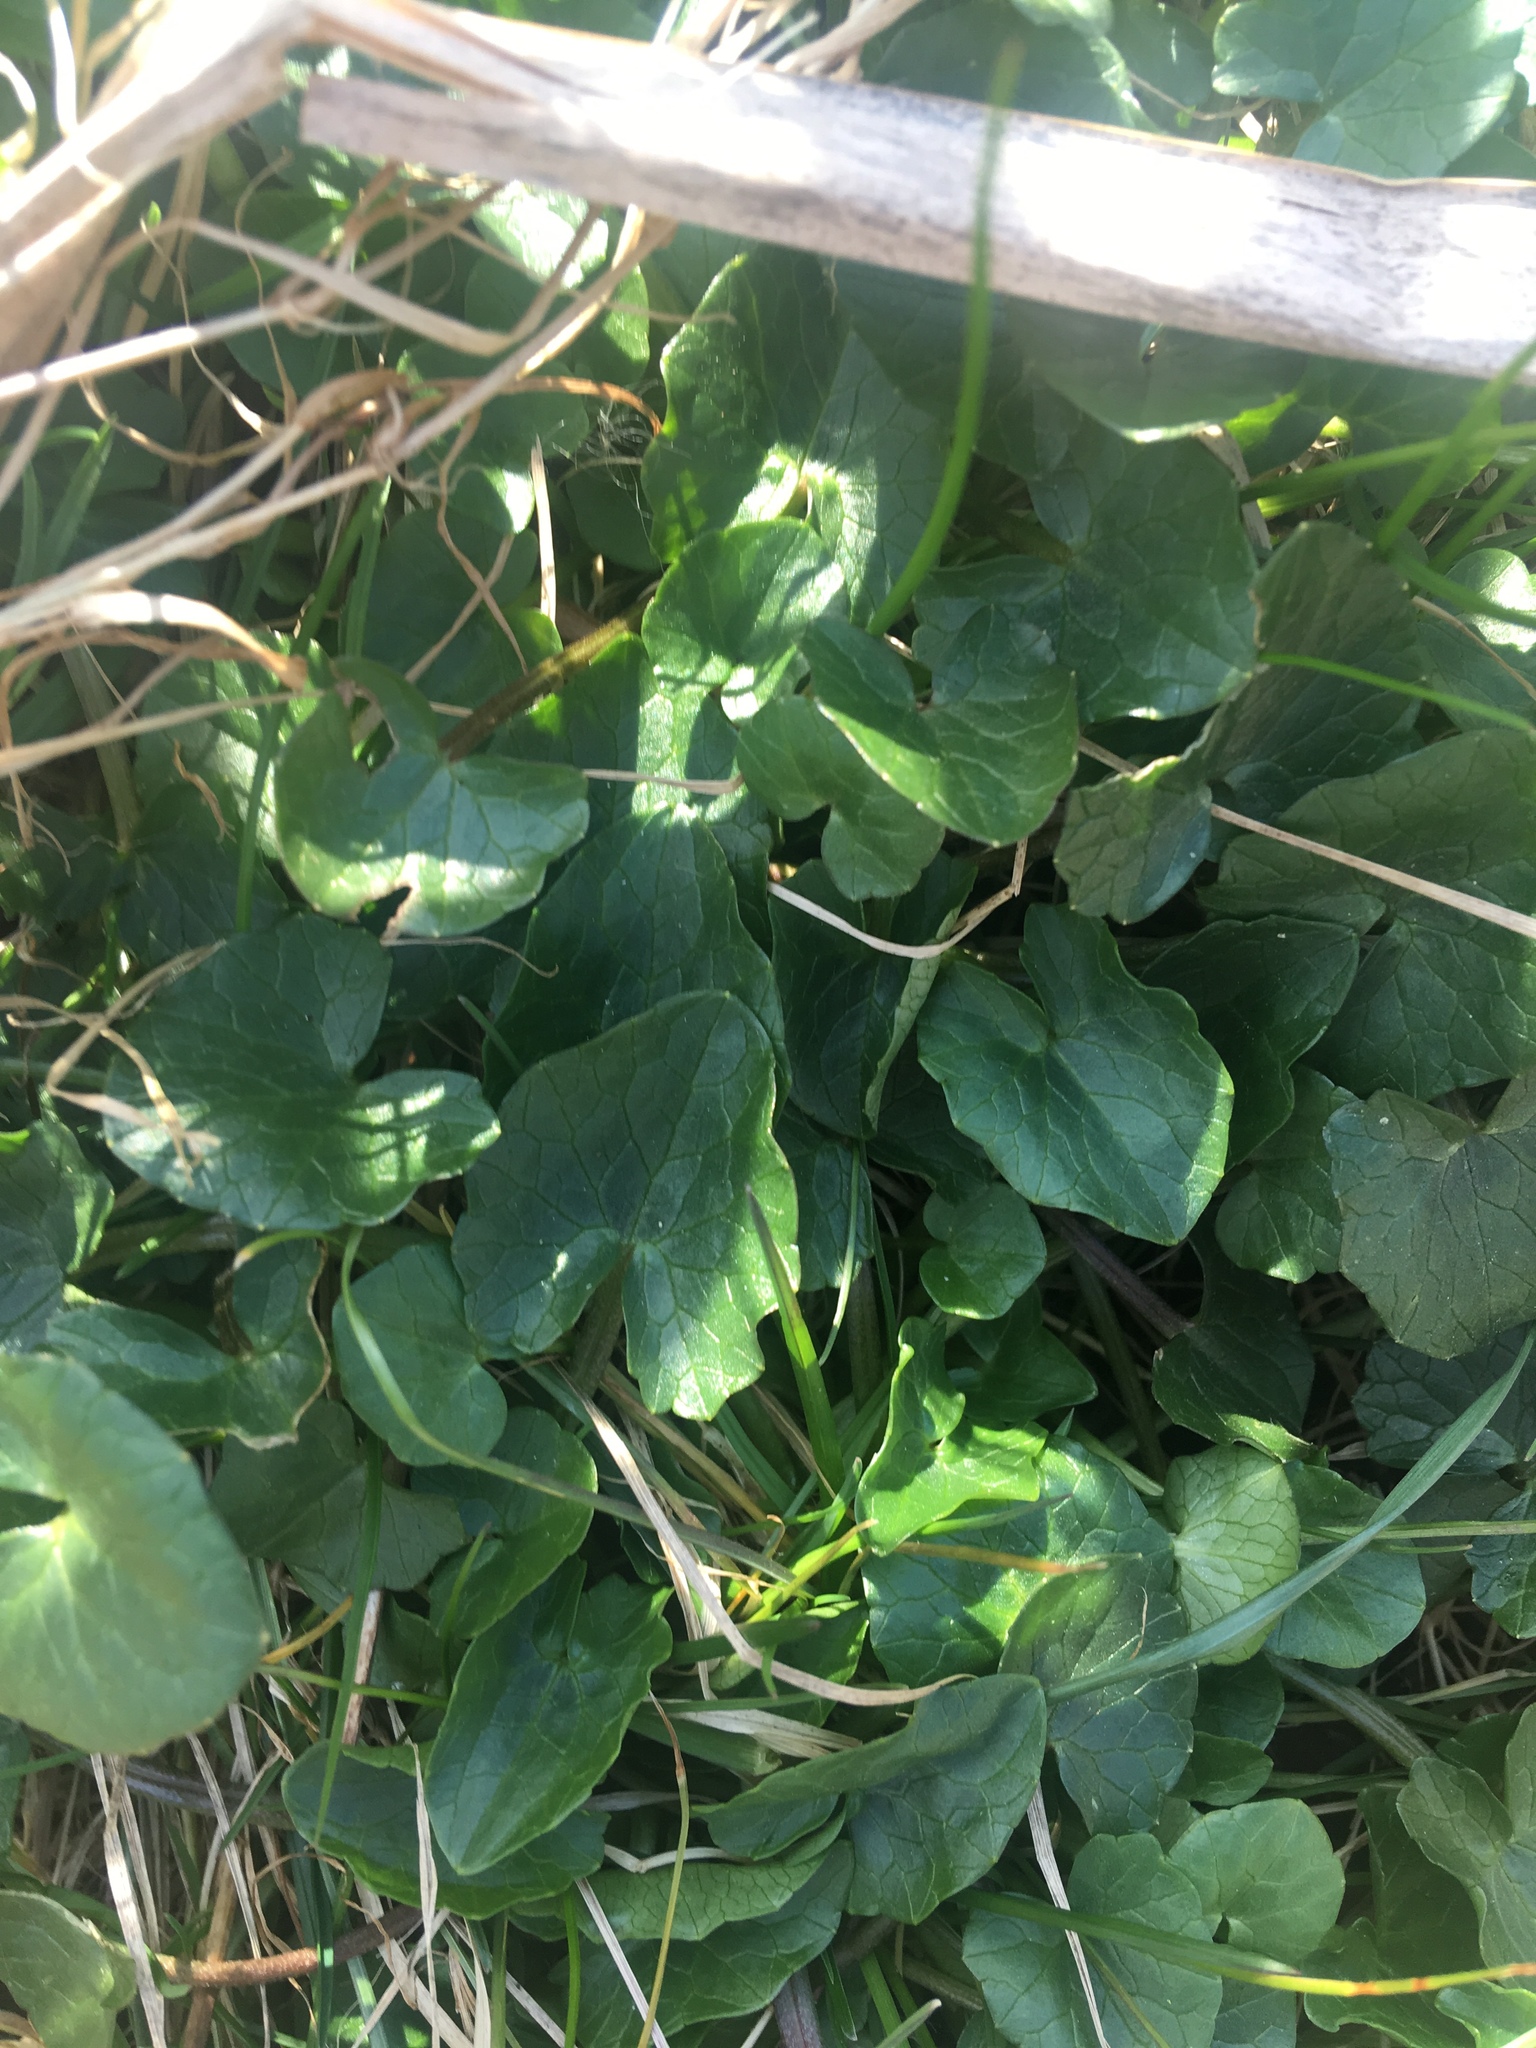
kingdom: Plantae
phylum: Tracheophyta
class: Magnoliopsida
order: Ranunculales
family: Ranunculaceae
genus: Ficaria
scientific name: Ficaria verna
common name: Lesser celandine
